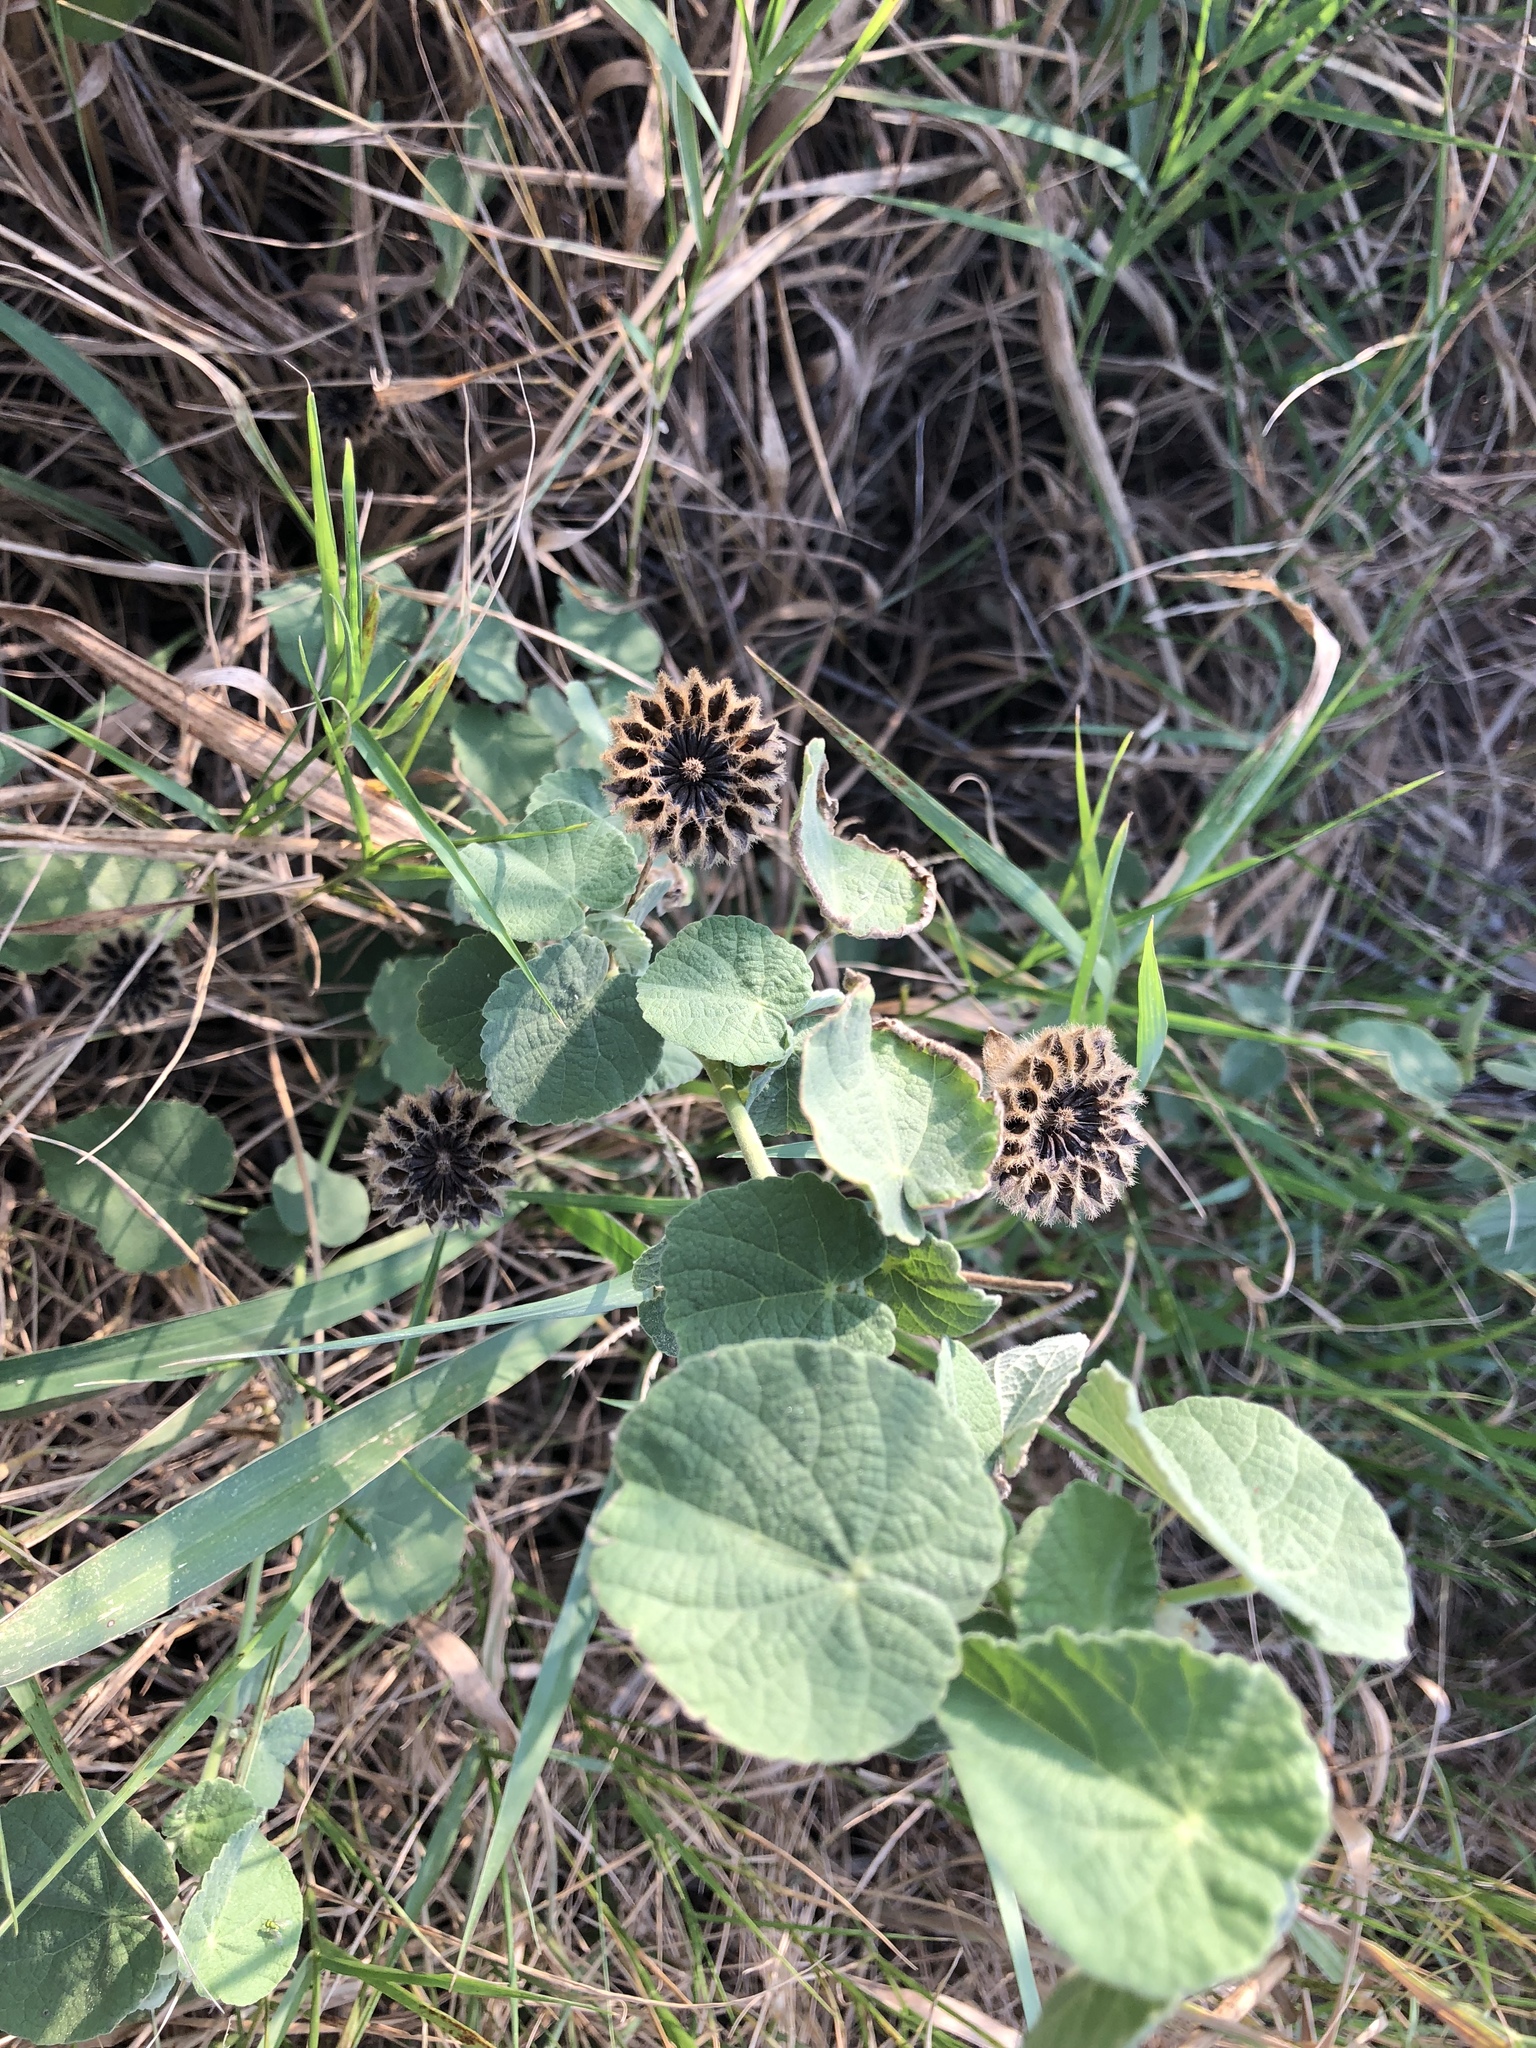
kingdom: Plantae
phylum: Tracheophyta
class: Magnoliopsida
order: Malvales
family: Malvaceae
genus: Abutilon
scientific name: Abutilon guineense
